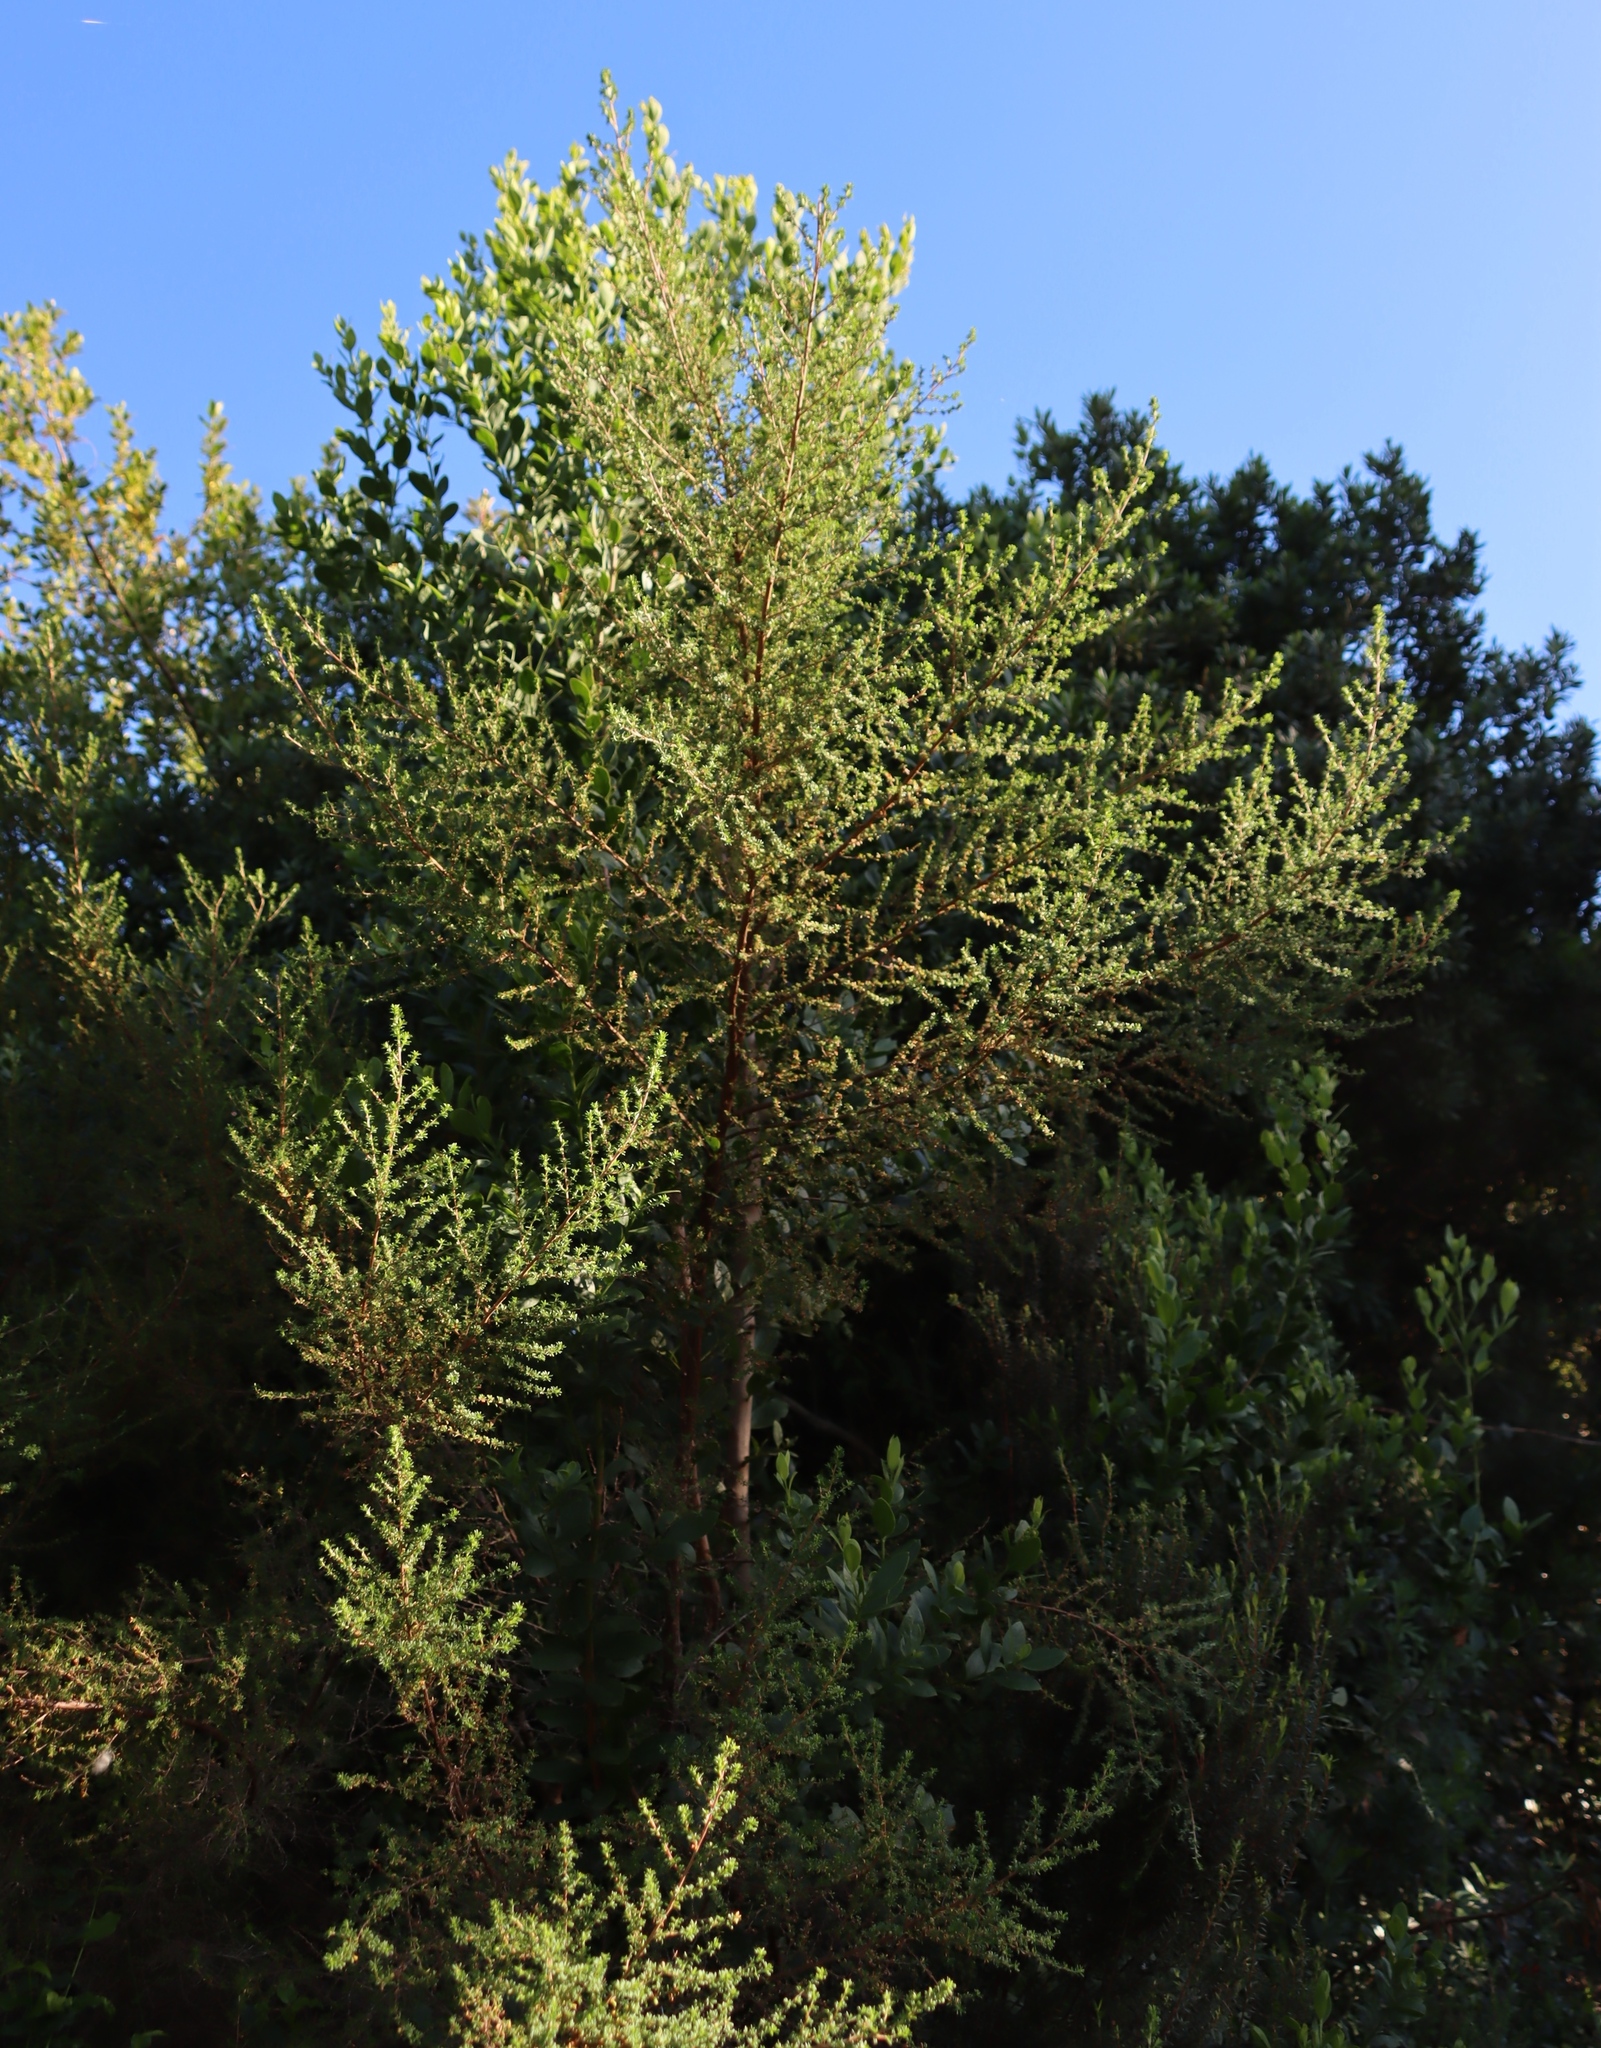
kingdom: Plantae
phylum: Tracheophyta
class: Magnoliopsida
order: Rosales
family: Rosaceae
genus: Cliffortia
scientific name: Cliffortia serpyllifolia
